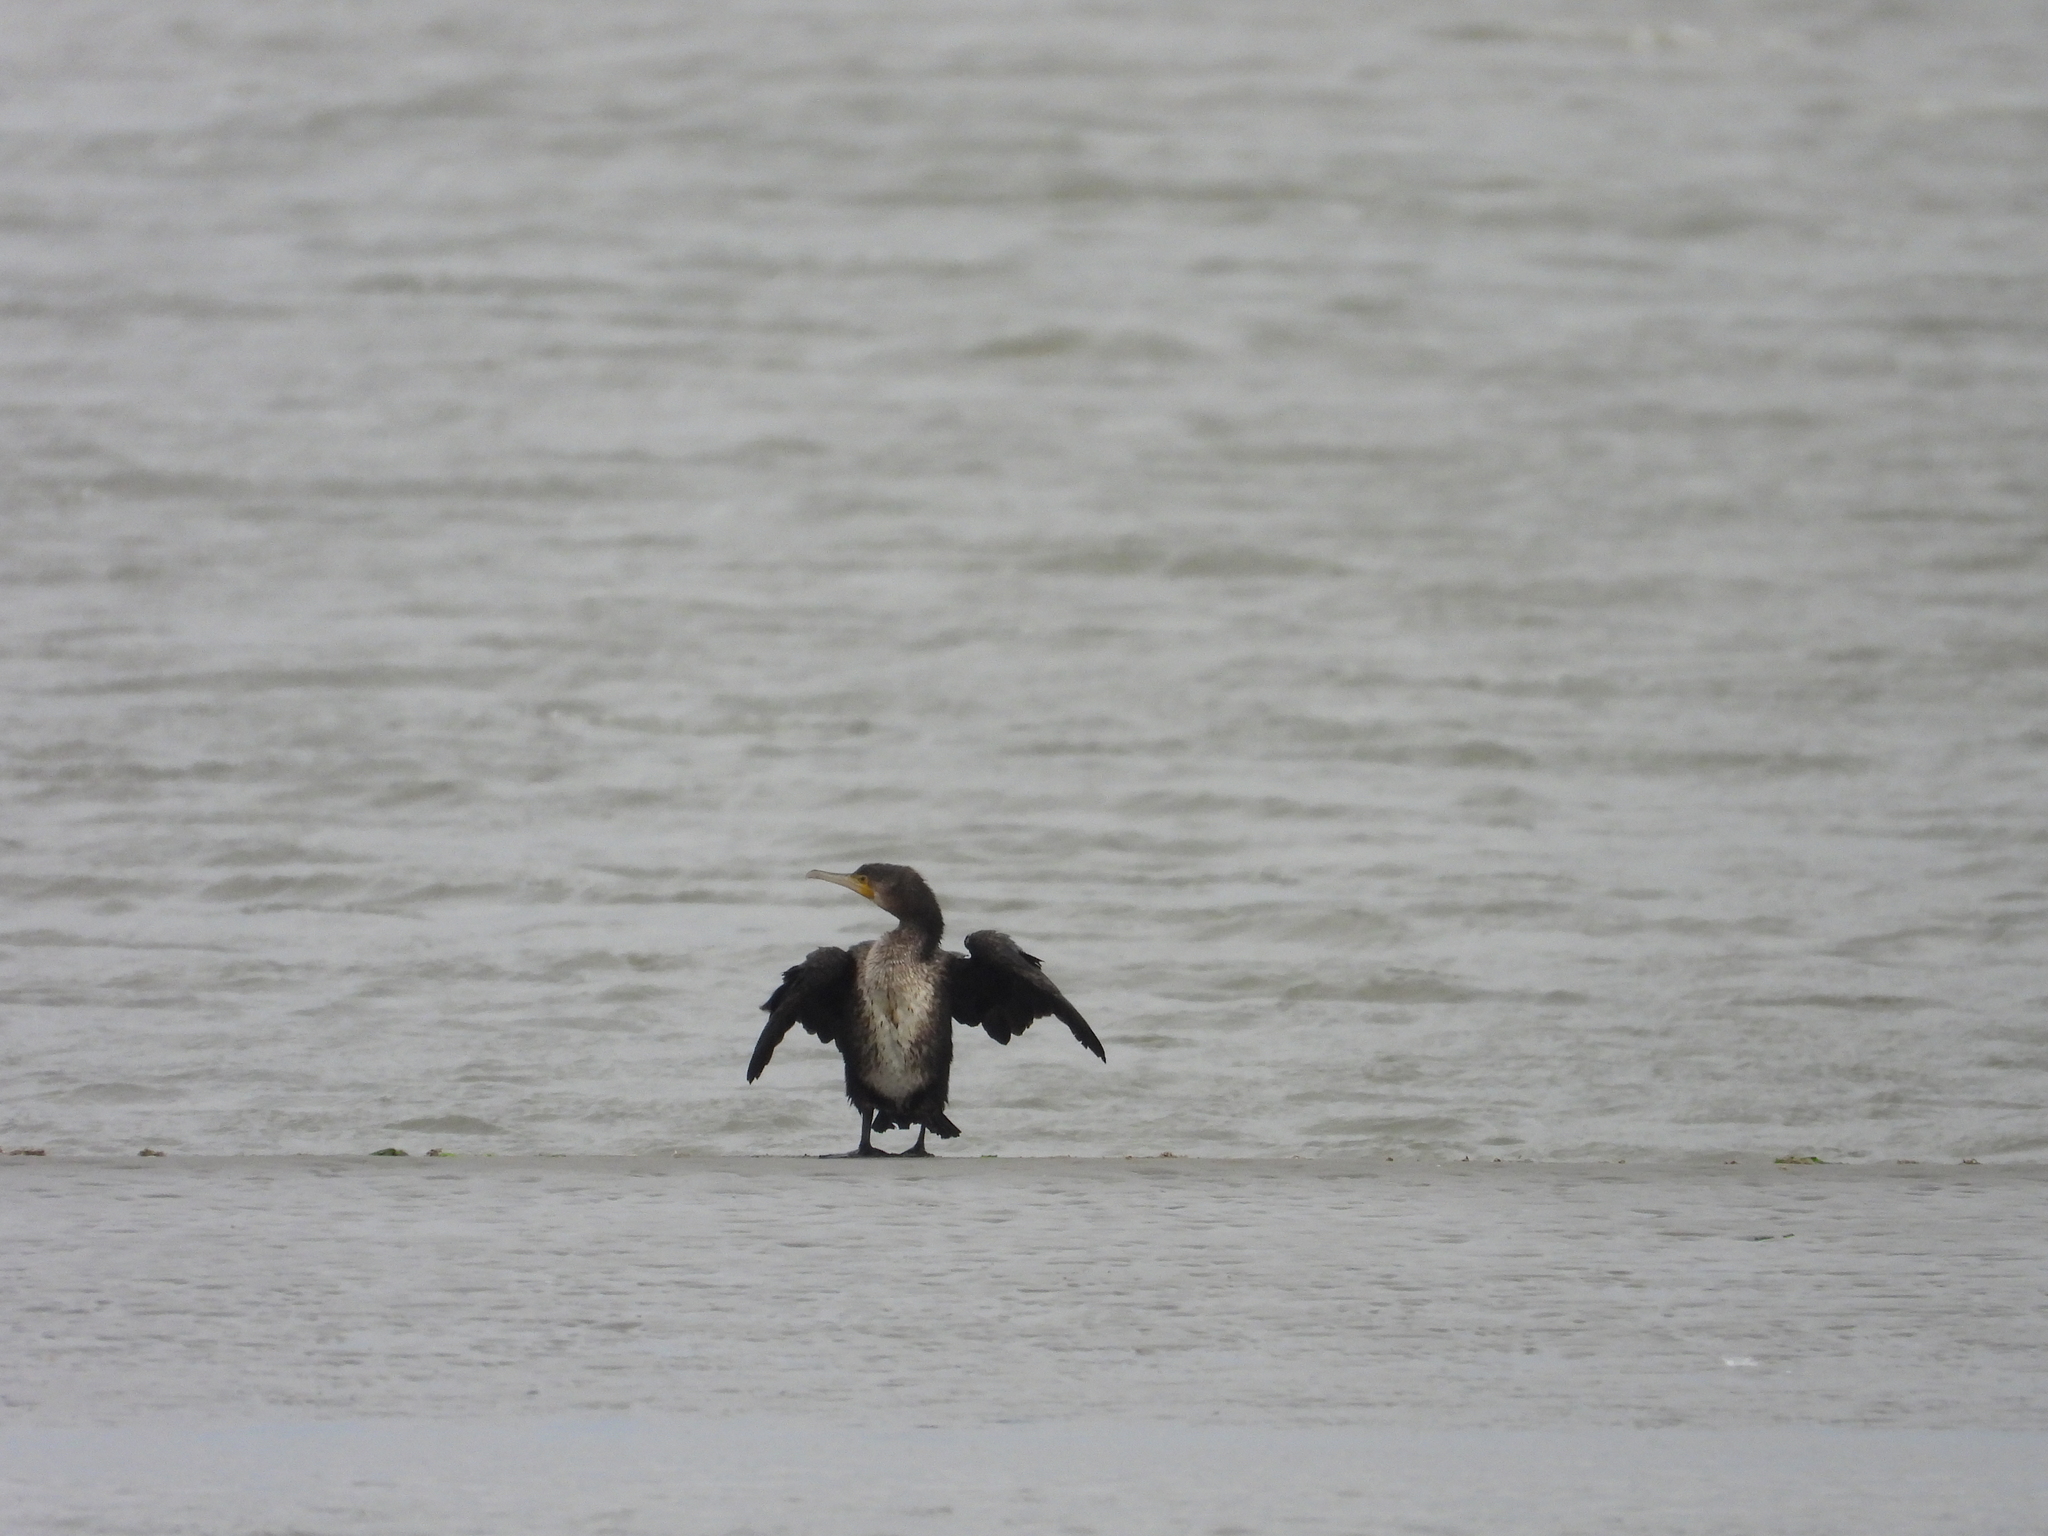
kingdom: Animalia
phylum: Chordata
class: Aves
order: Suliformes
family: Phalacrocoracidae
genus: Phalacrocorax
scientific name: Phalacrocorax carbo
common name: Great cormorant
